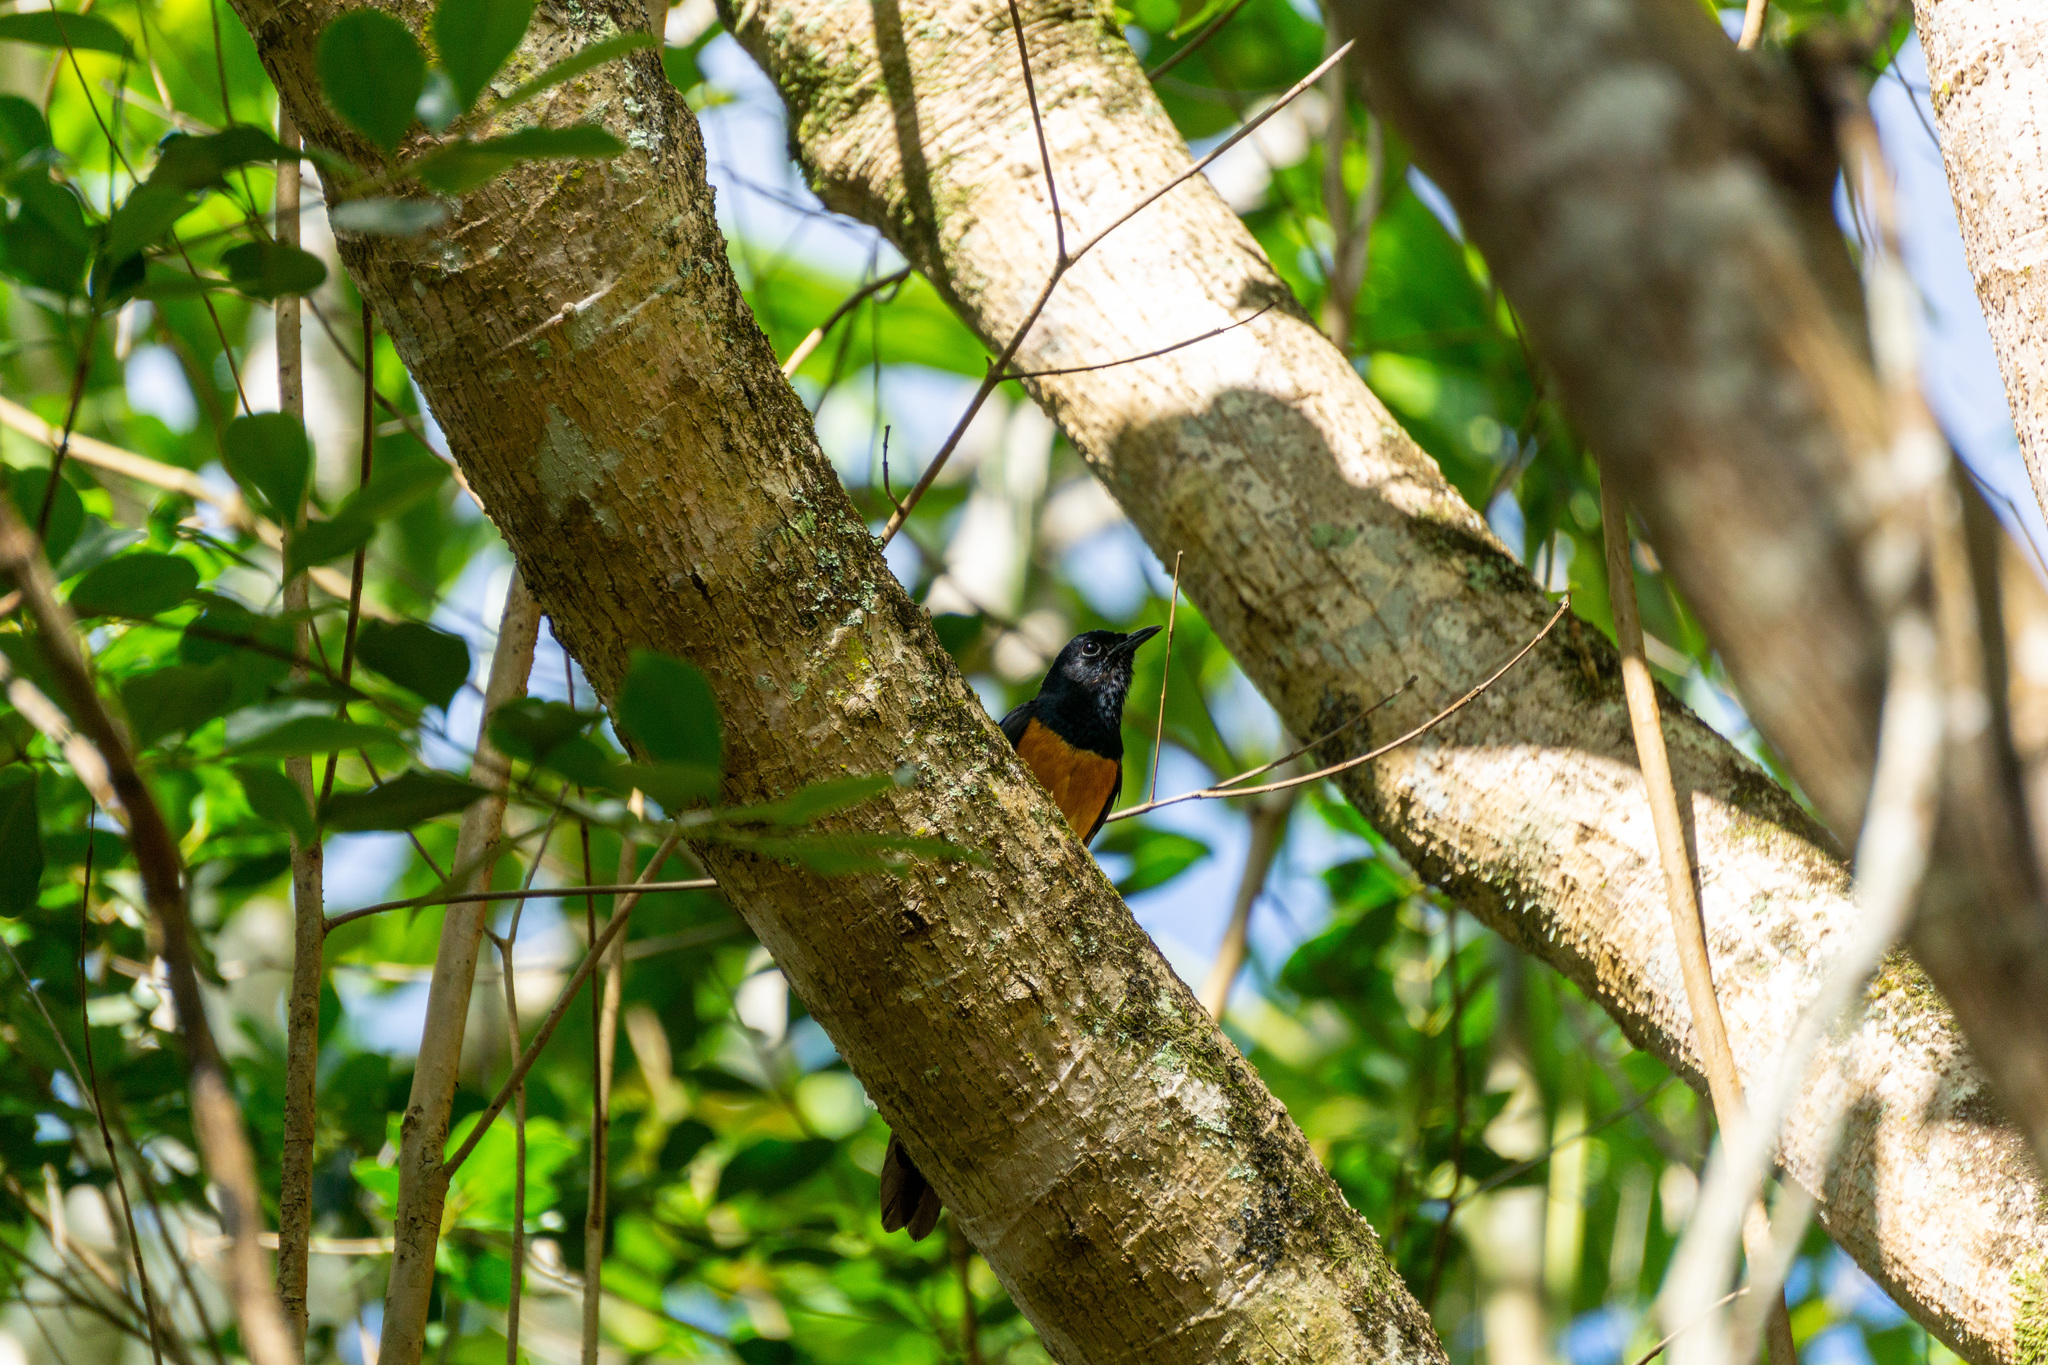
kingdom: Animalia
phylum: Chordata
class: Aves
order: Passeriformes
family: Muscicapidae
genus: Copsychus
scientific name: Copsychus malabaricus
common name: White-rumped shama
